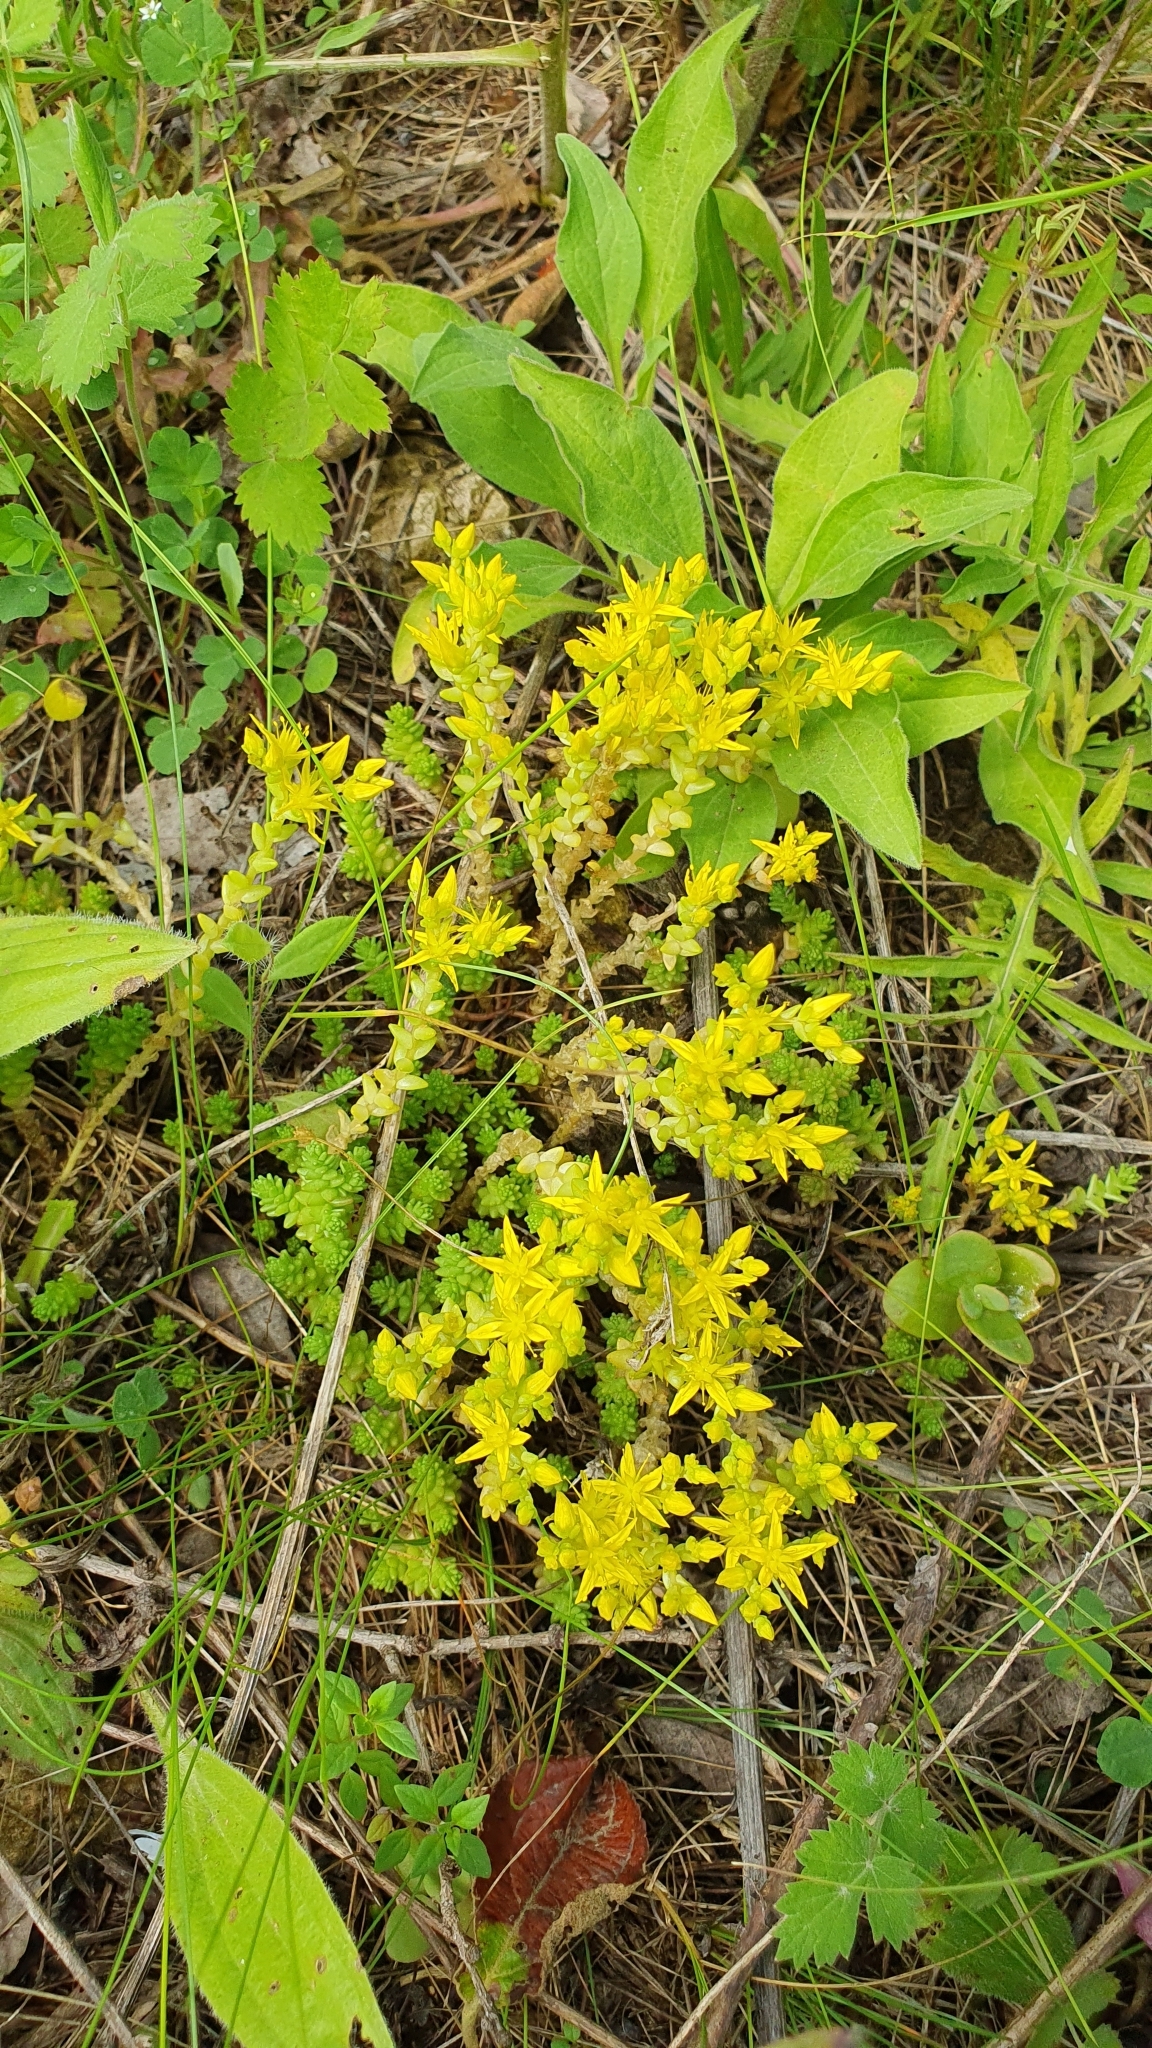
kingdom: Plantae
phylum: Tracheophyta
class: Magnoliopsida
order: Saxifragales
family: Crassulaceae
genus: Sedum
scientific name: Sedum acre
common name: Biting stonecrop
